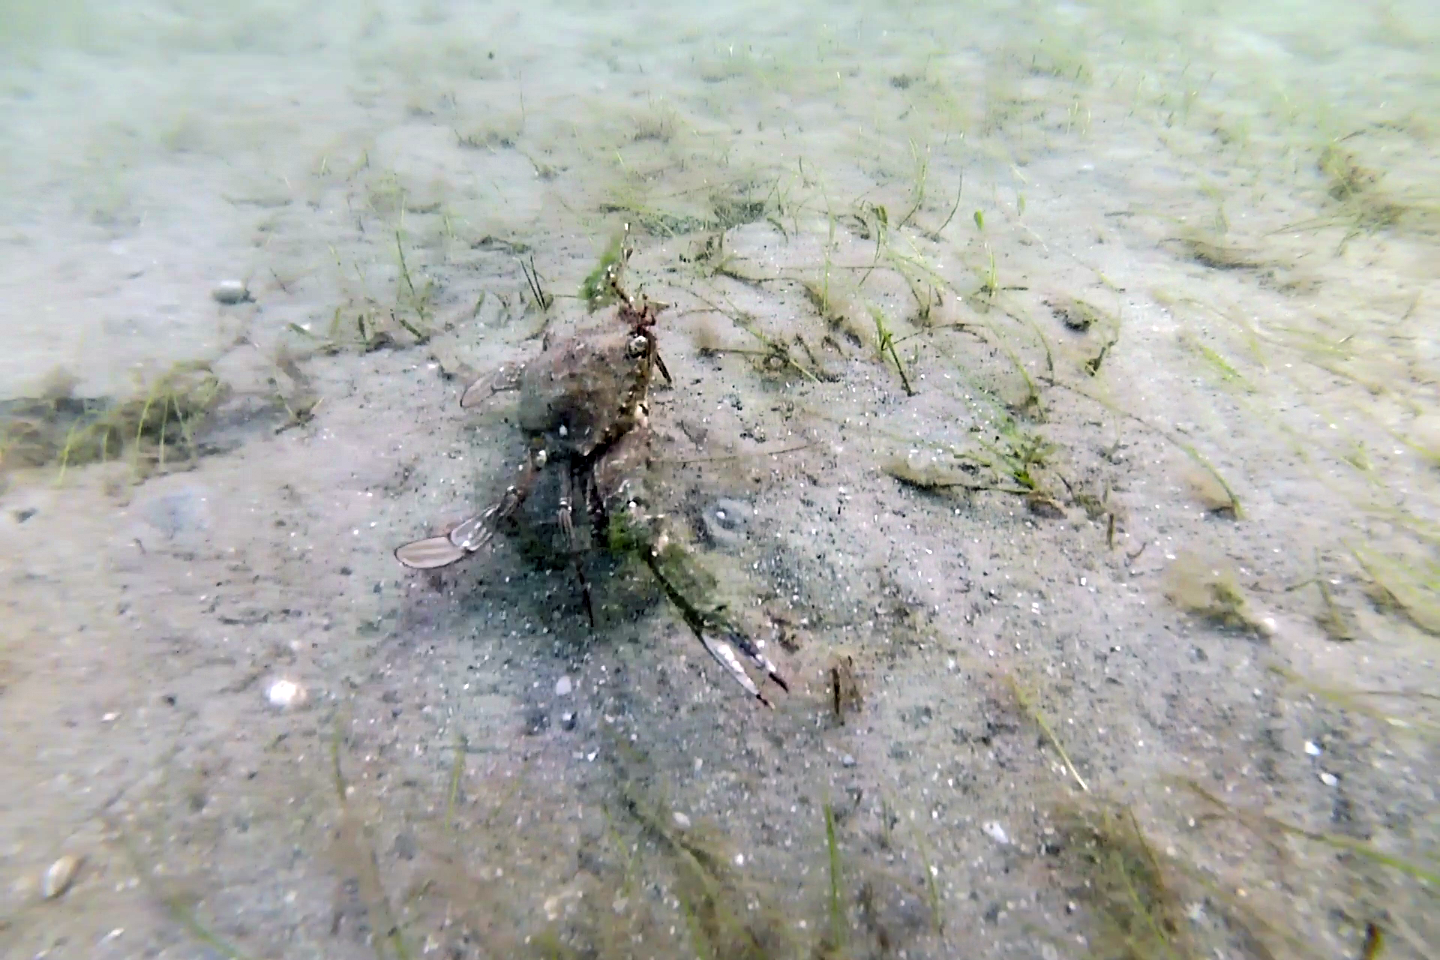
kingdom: Animalia
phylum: Arthropoda
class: Malacostraca
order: Decapoda
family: Portunidae
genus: Achelous
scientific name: Achelous spinimanus
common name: Spiny-handed portunus
